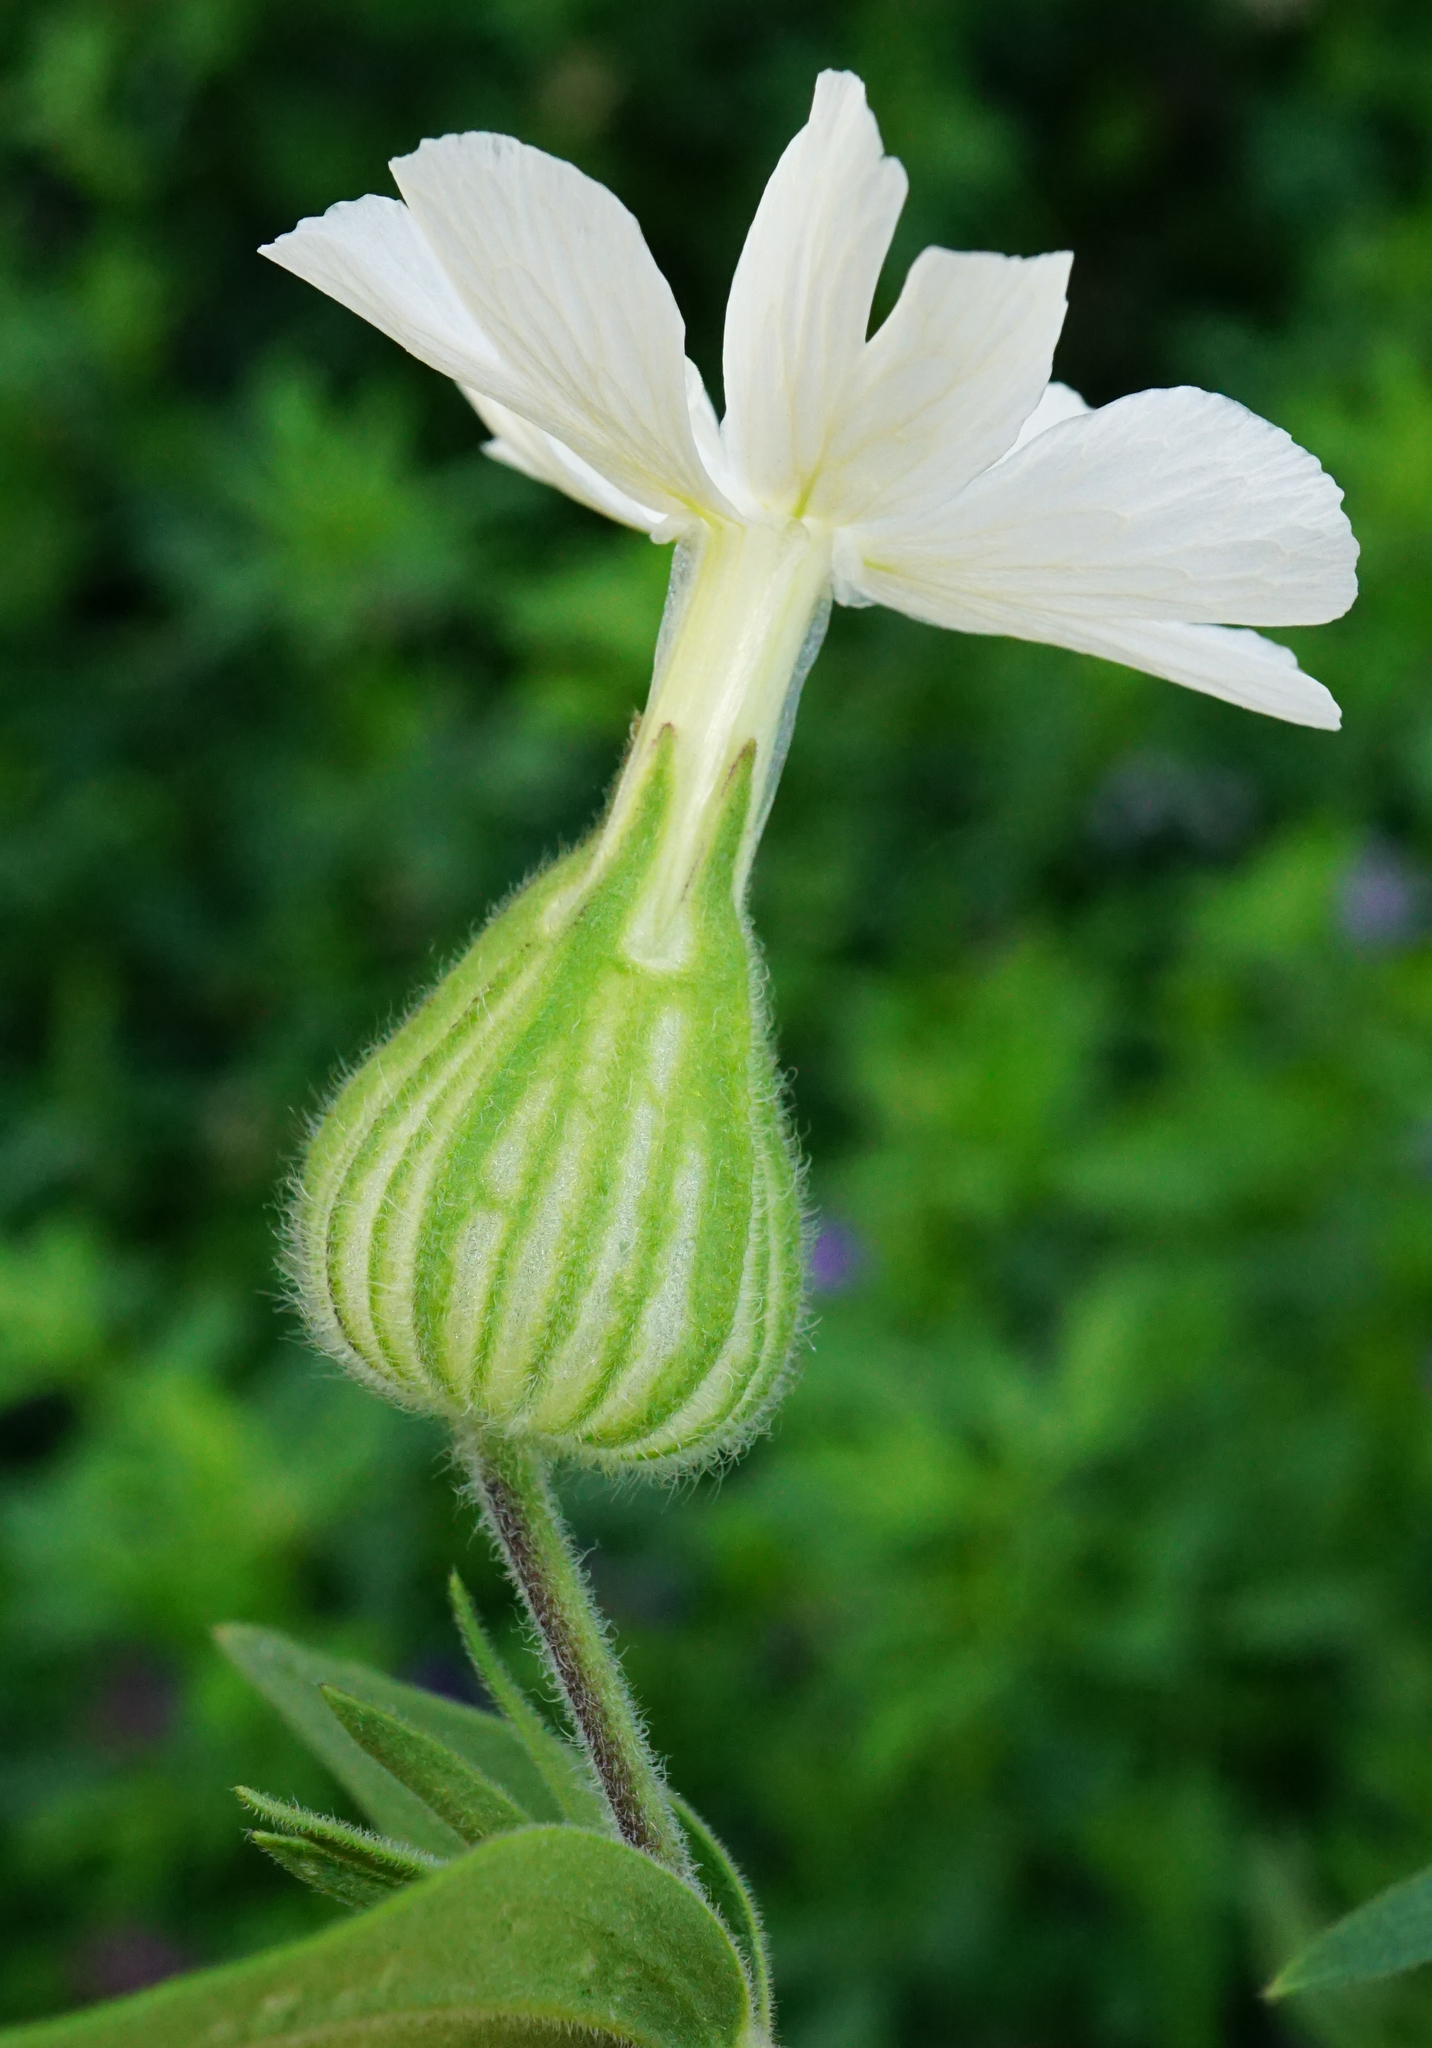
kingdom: Plantae
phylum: Tracheophyta
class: Magnoliopsida
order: Caryophyllales
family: Caryophyllaceae
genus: Silene
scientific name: Silene latifolia
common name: White campion
